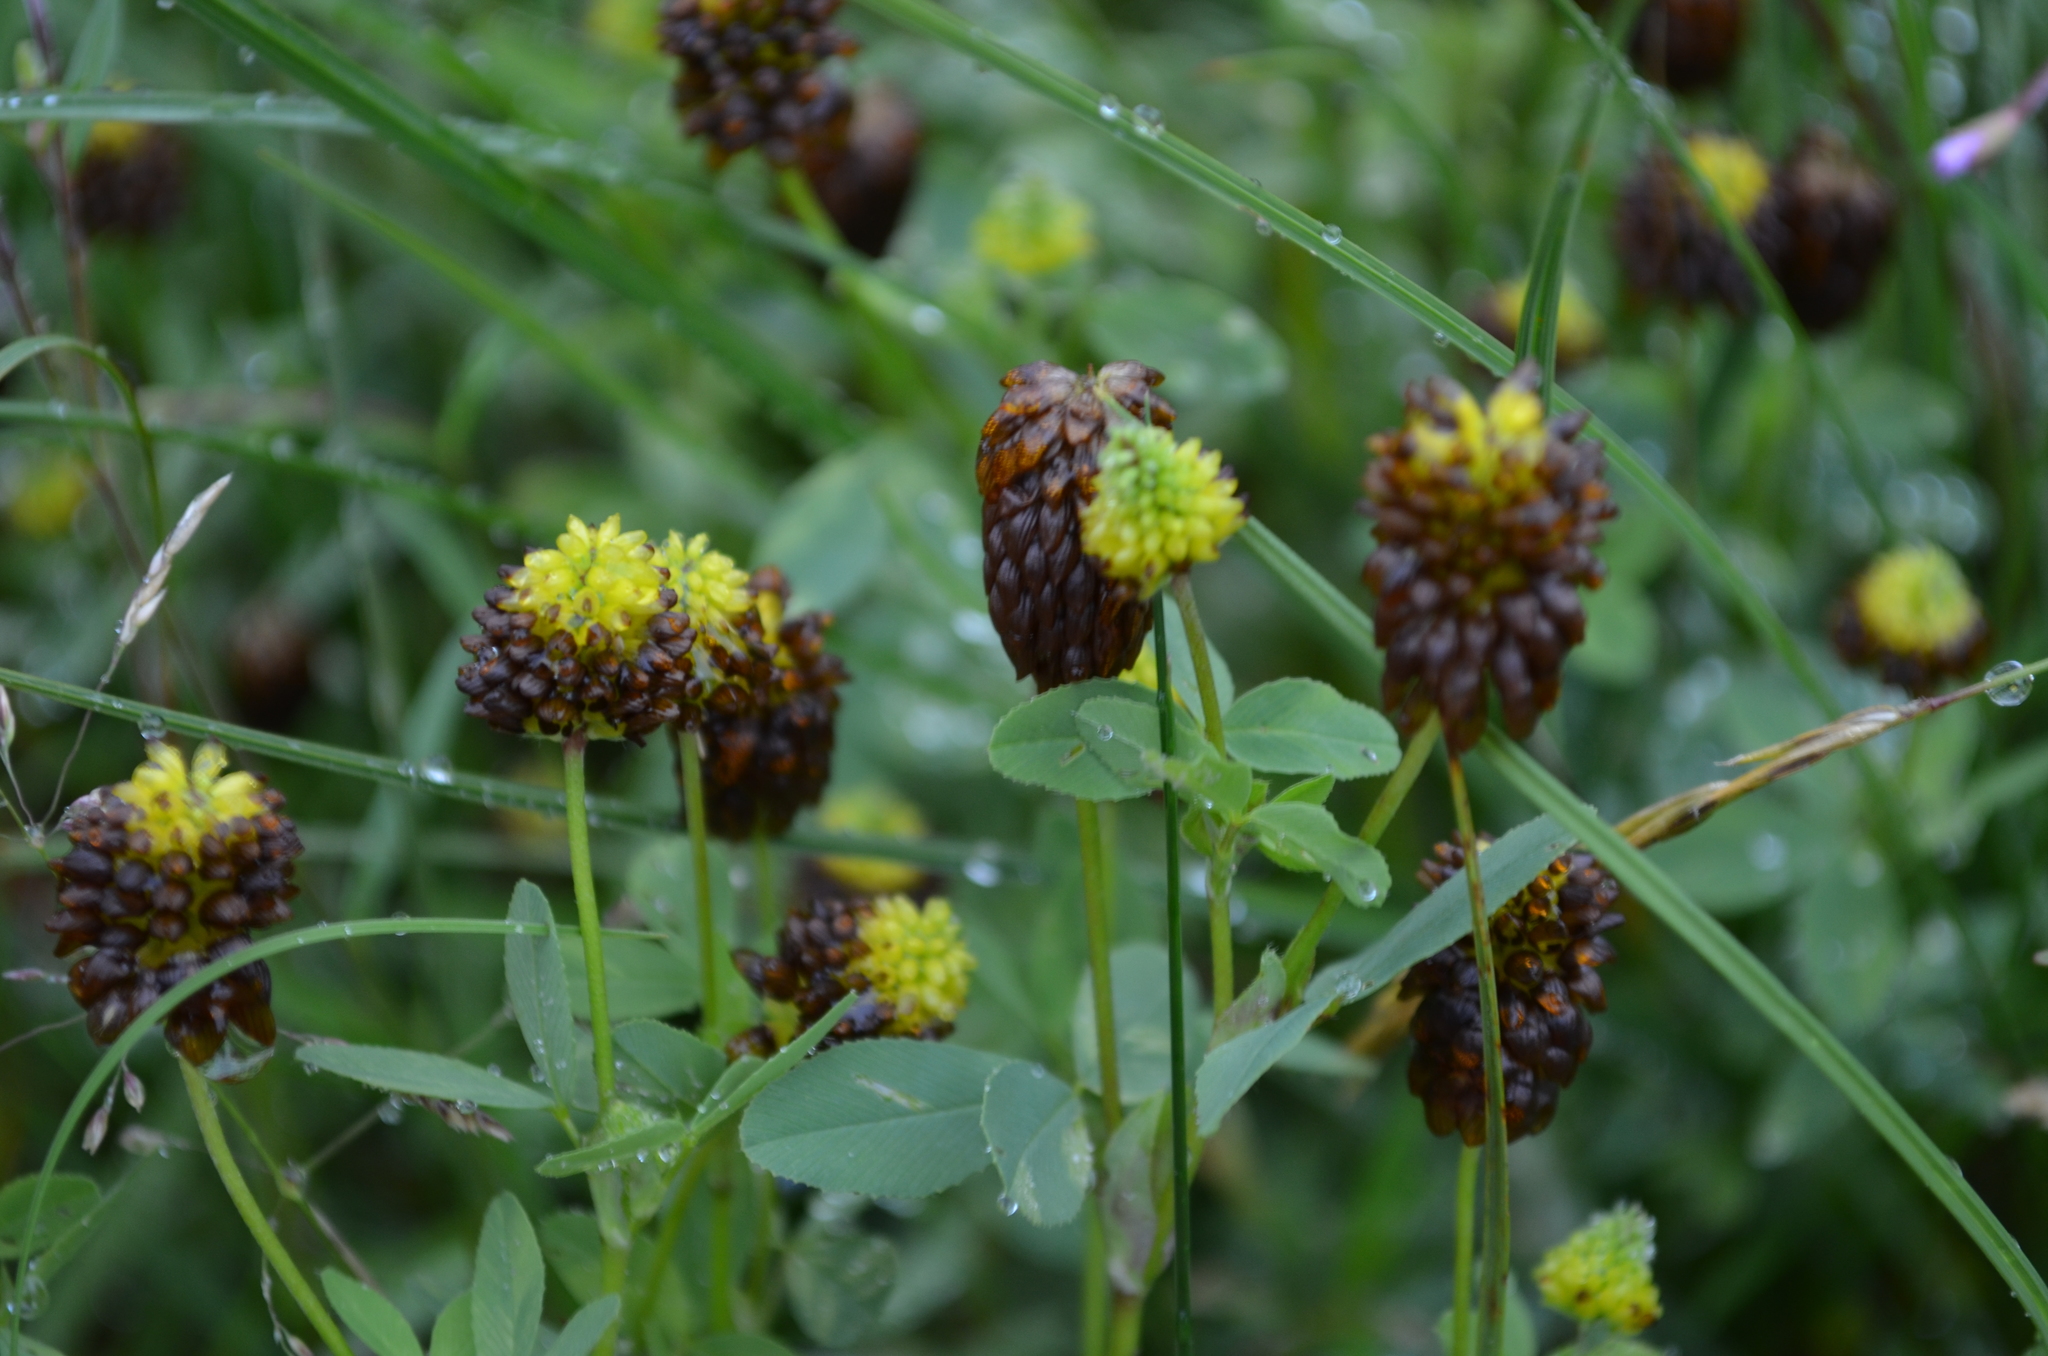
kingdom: Plantae
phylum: Tracheophyta
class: Magnoliopsida
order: Fabales
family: Fabaceae
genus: Trifolium
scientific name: Trifolium spadiceum
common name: Brown moor clover
